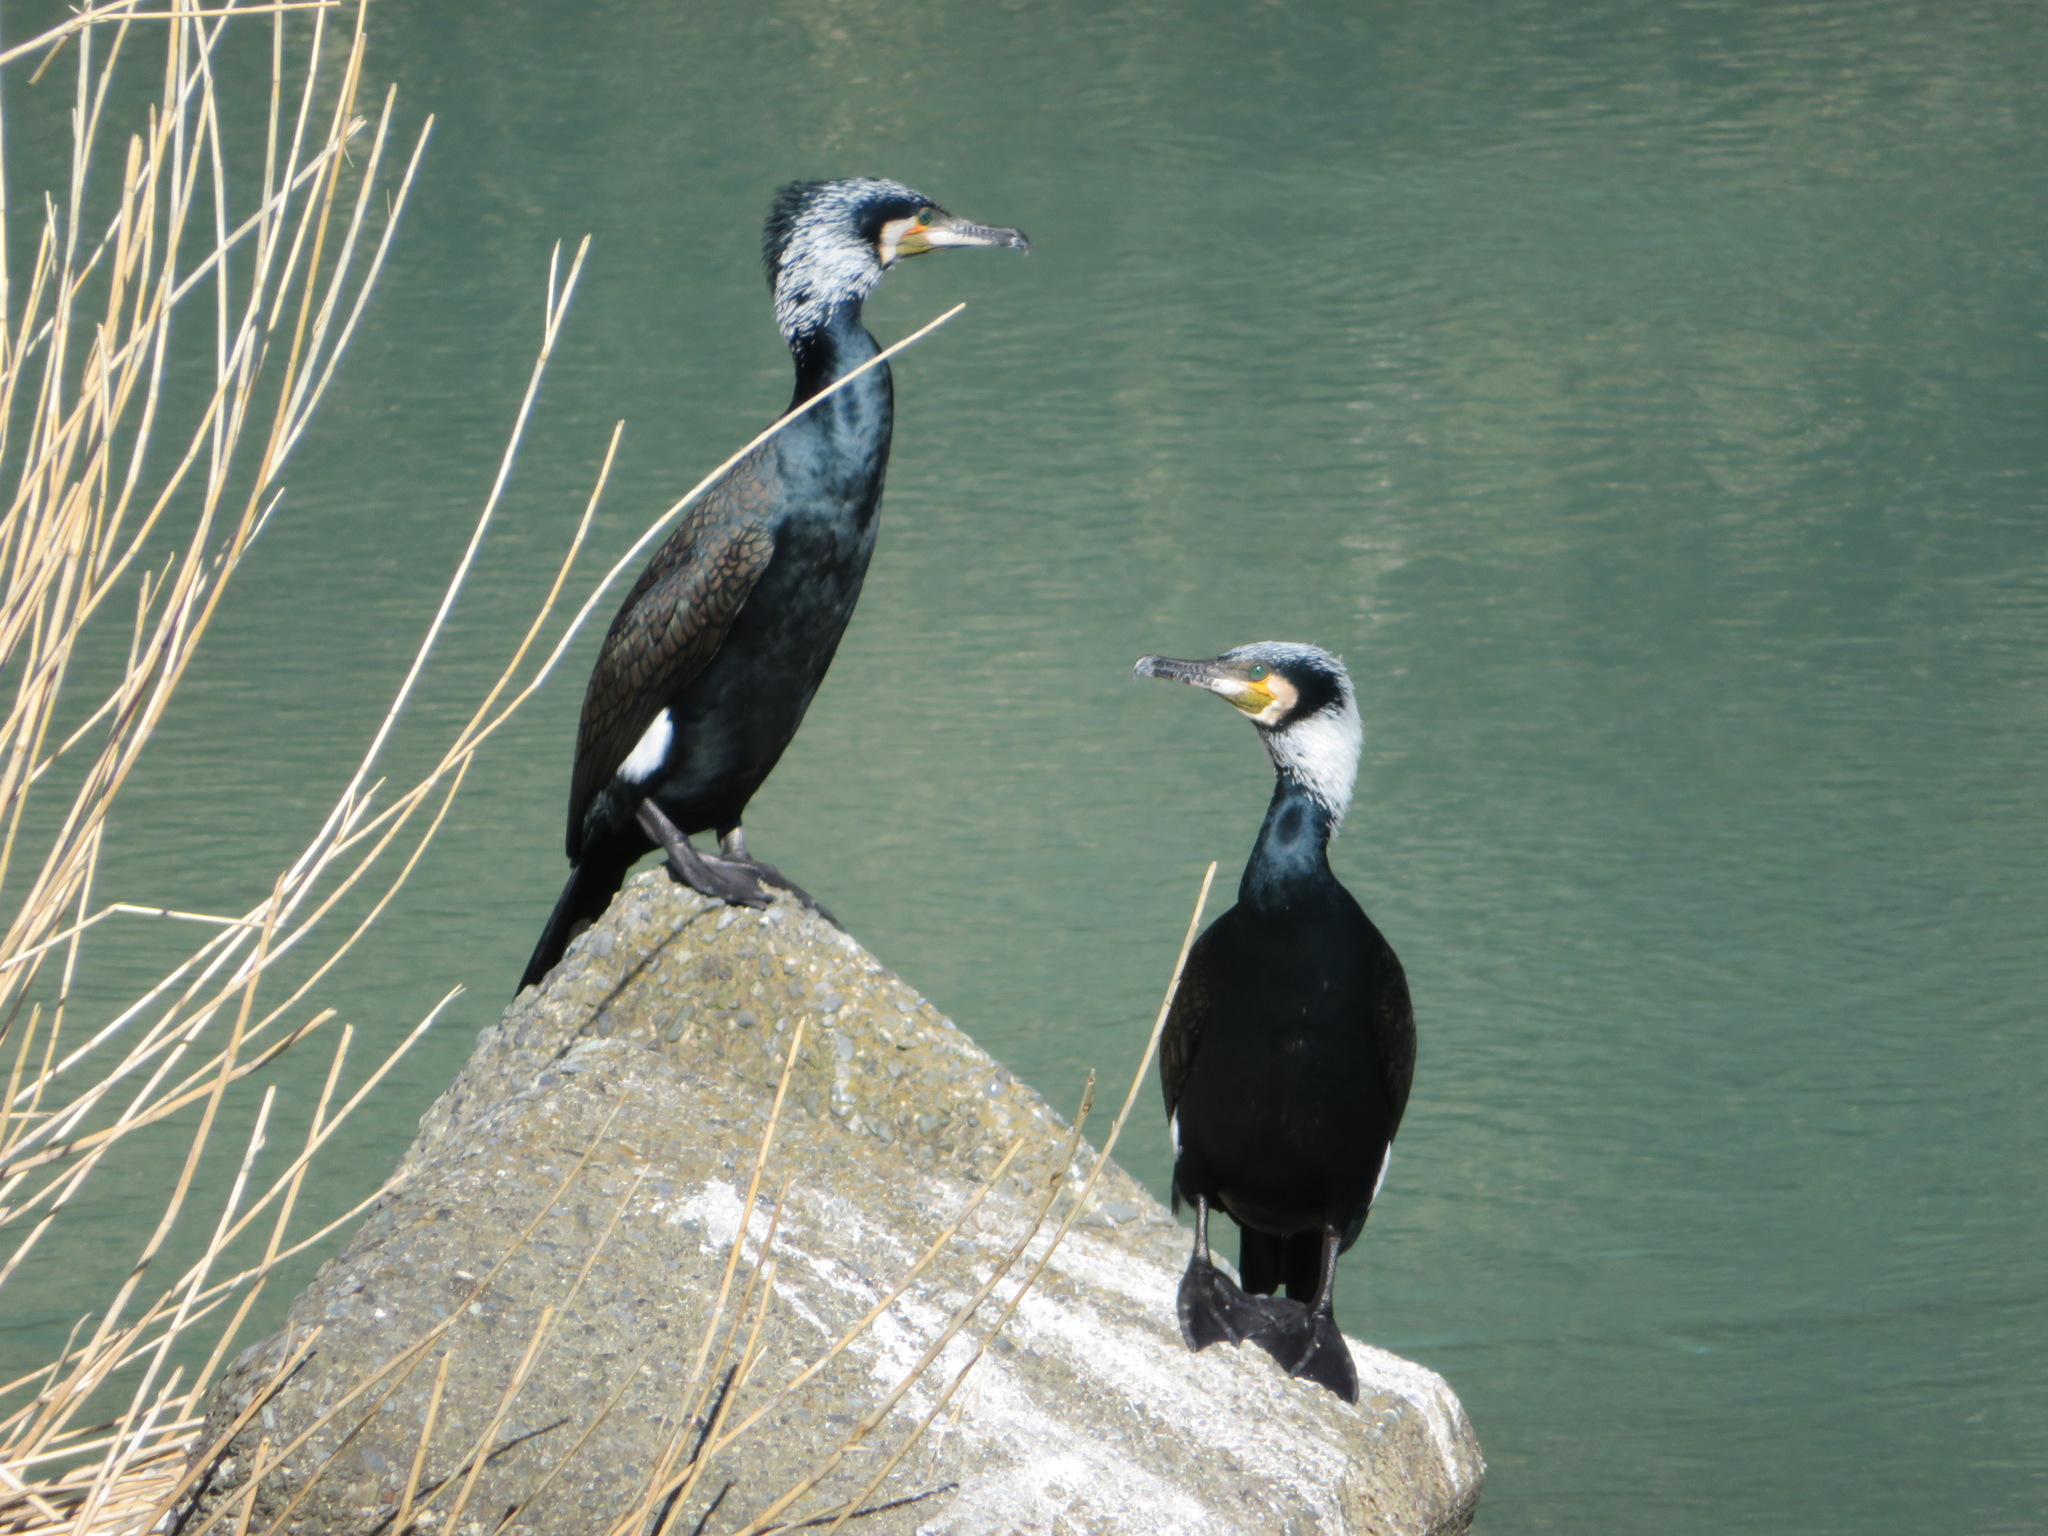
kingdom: Animalia
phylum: Chordata
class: Aves
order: Suliformes
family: Phalacrocoracidae
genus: Phalacrocorax
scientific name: Phalacrocorax carbo
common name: Great cormorant
